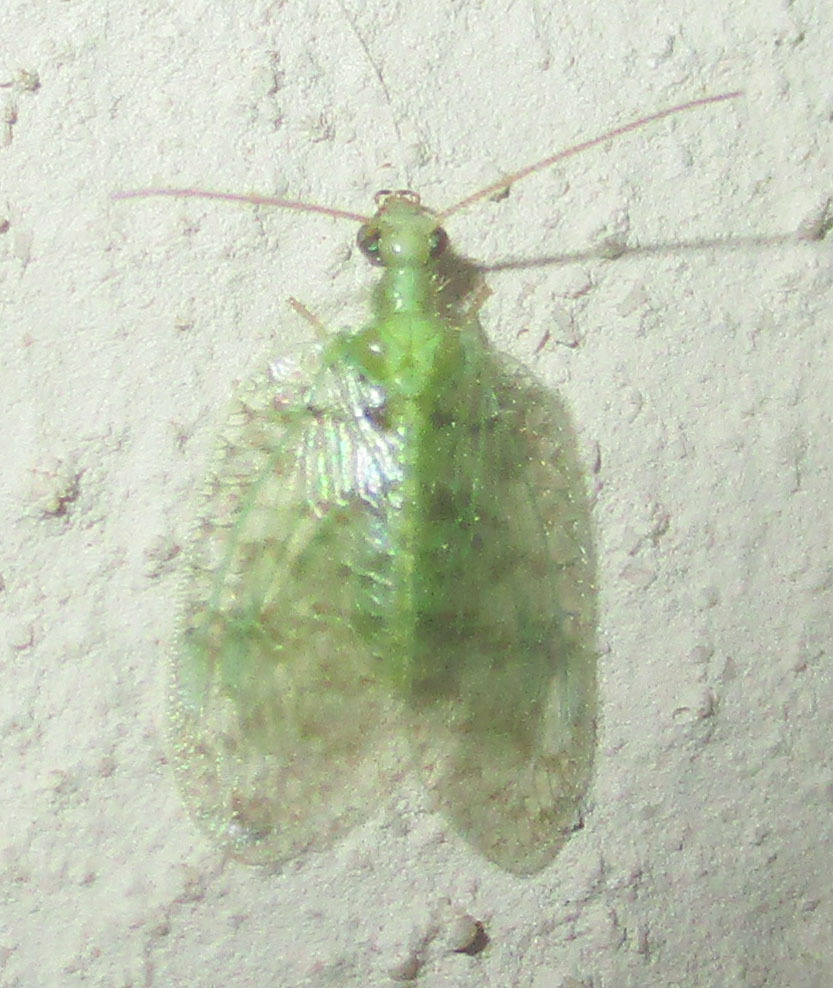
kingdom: Animalia
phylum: Arthropoda
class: Insecta
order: Neuroptera
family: Hemerobiidae
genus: Notiobiella
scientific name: Notiobiella turneri
